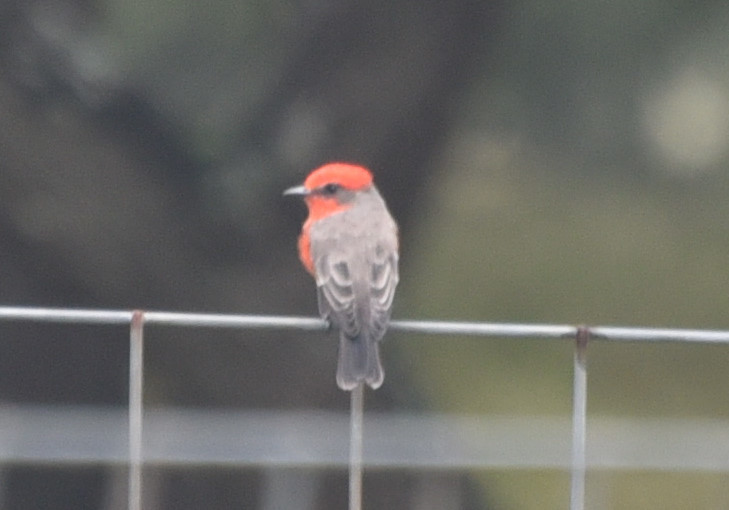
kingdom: Animalia
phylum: Chordata
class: Aves
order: Passeriformes
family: Tyrannidae
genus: Pyrocephalus
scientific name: Pyrocephalus rubinus
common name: Vermilion flycatcher
